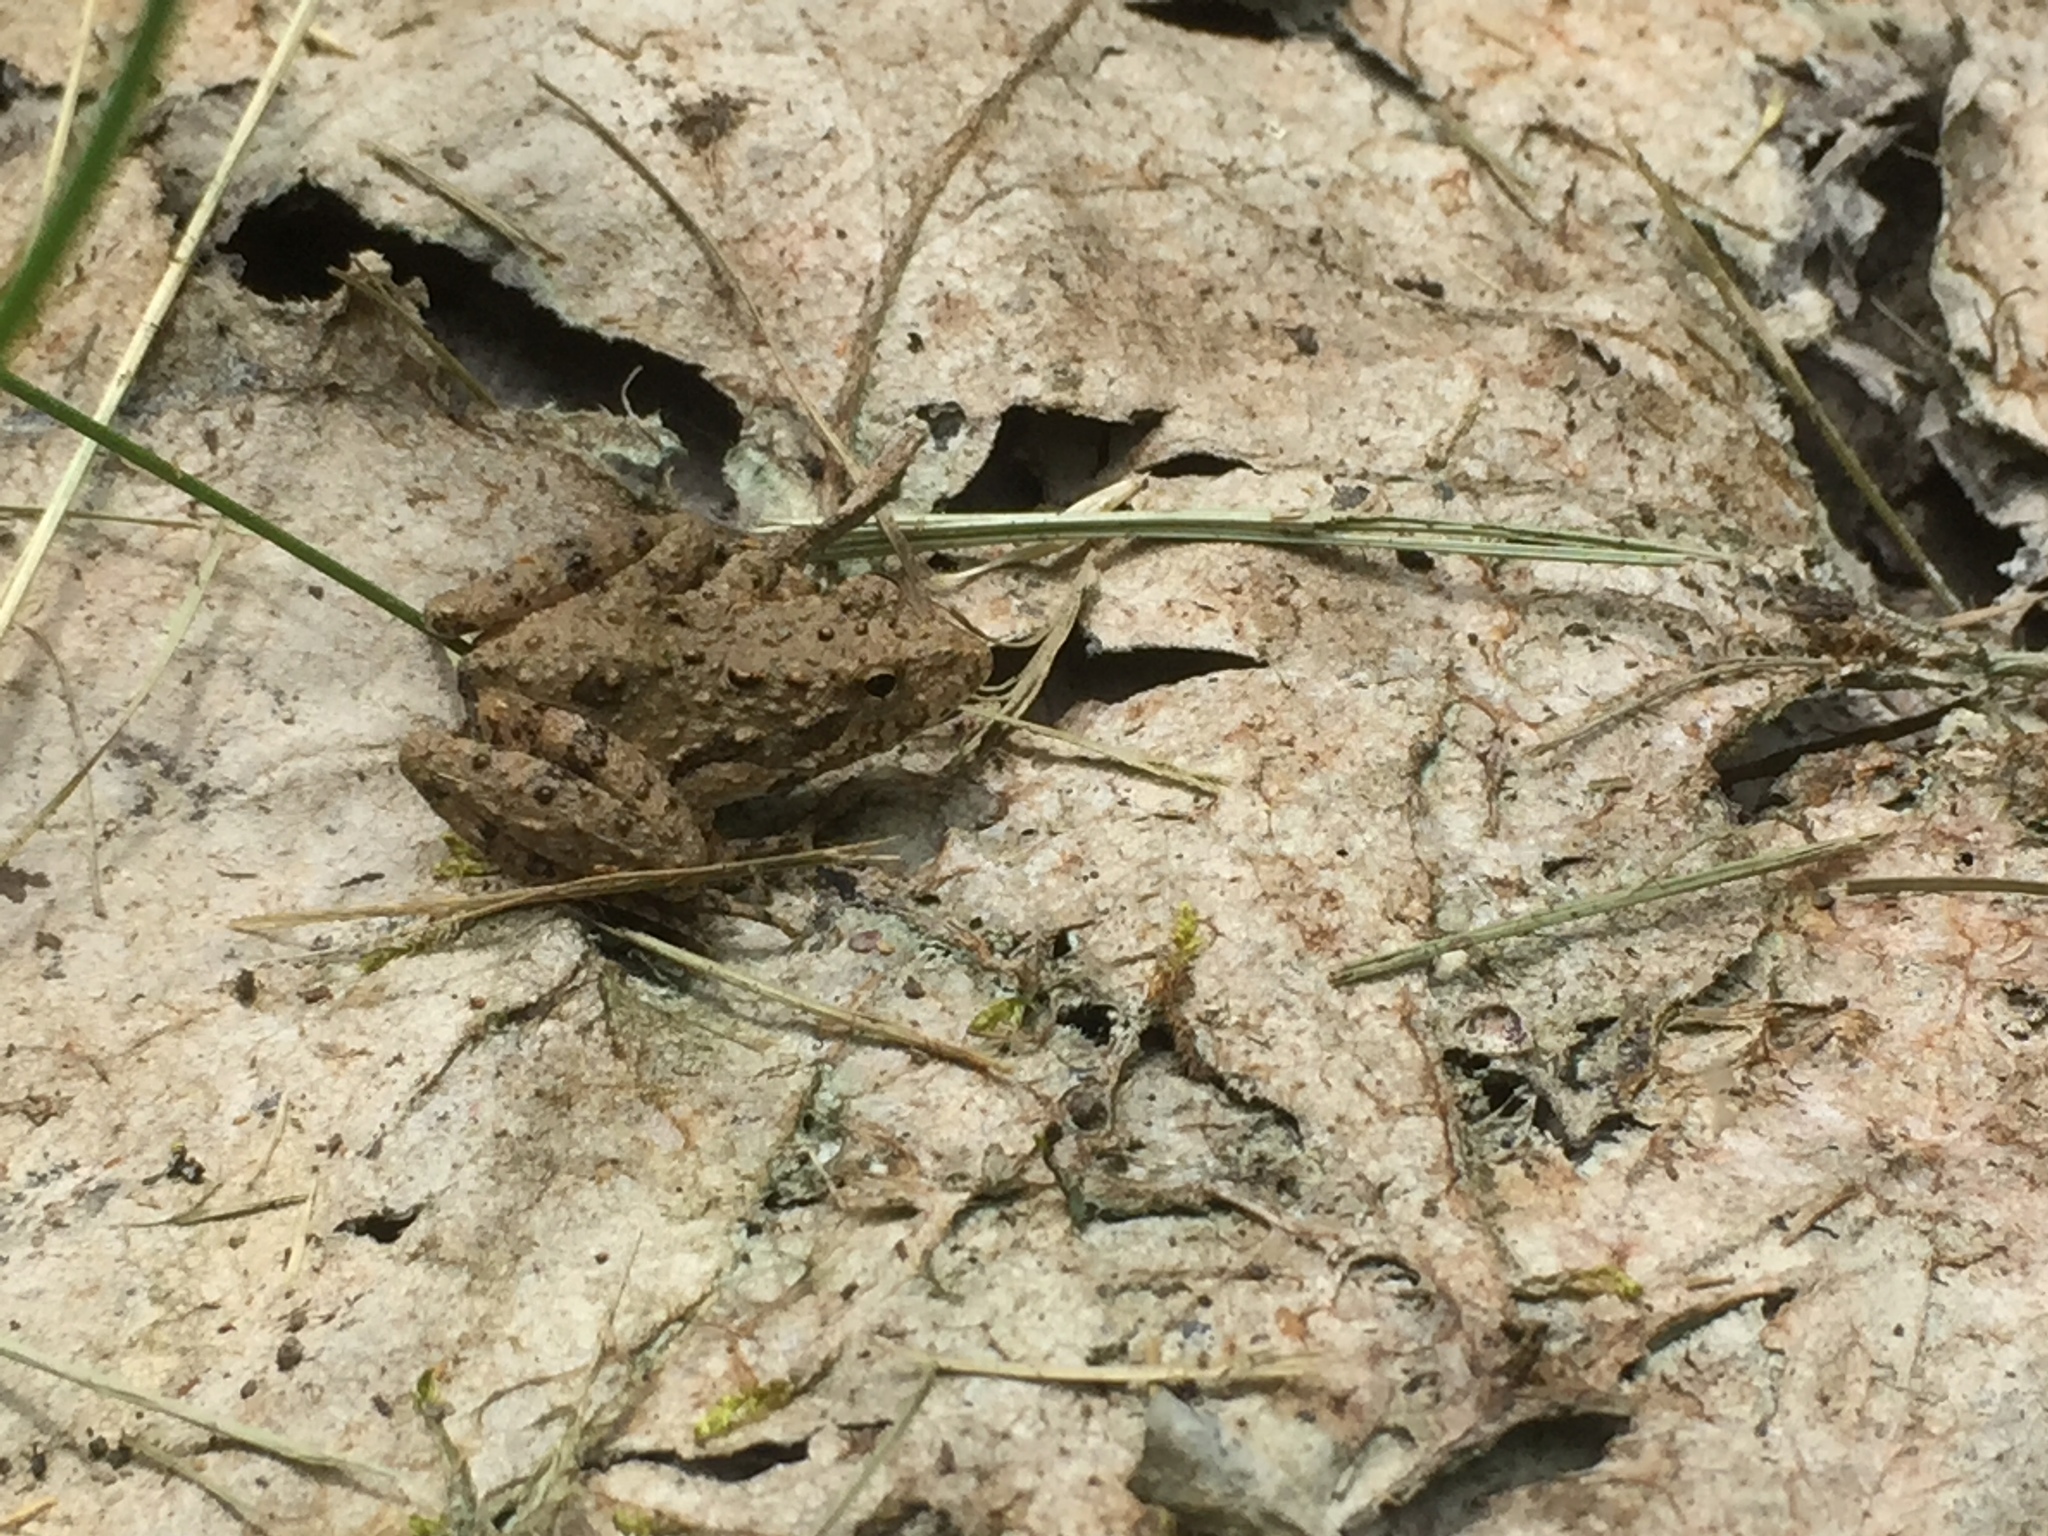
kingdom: Animalia
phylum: Chordata
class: Amphibia
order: Anura
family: Hylidae
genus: Acris
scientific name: Acris blanchardi
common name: Blanchard's cricket frog
